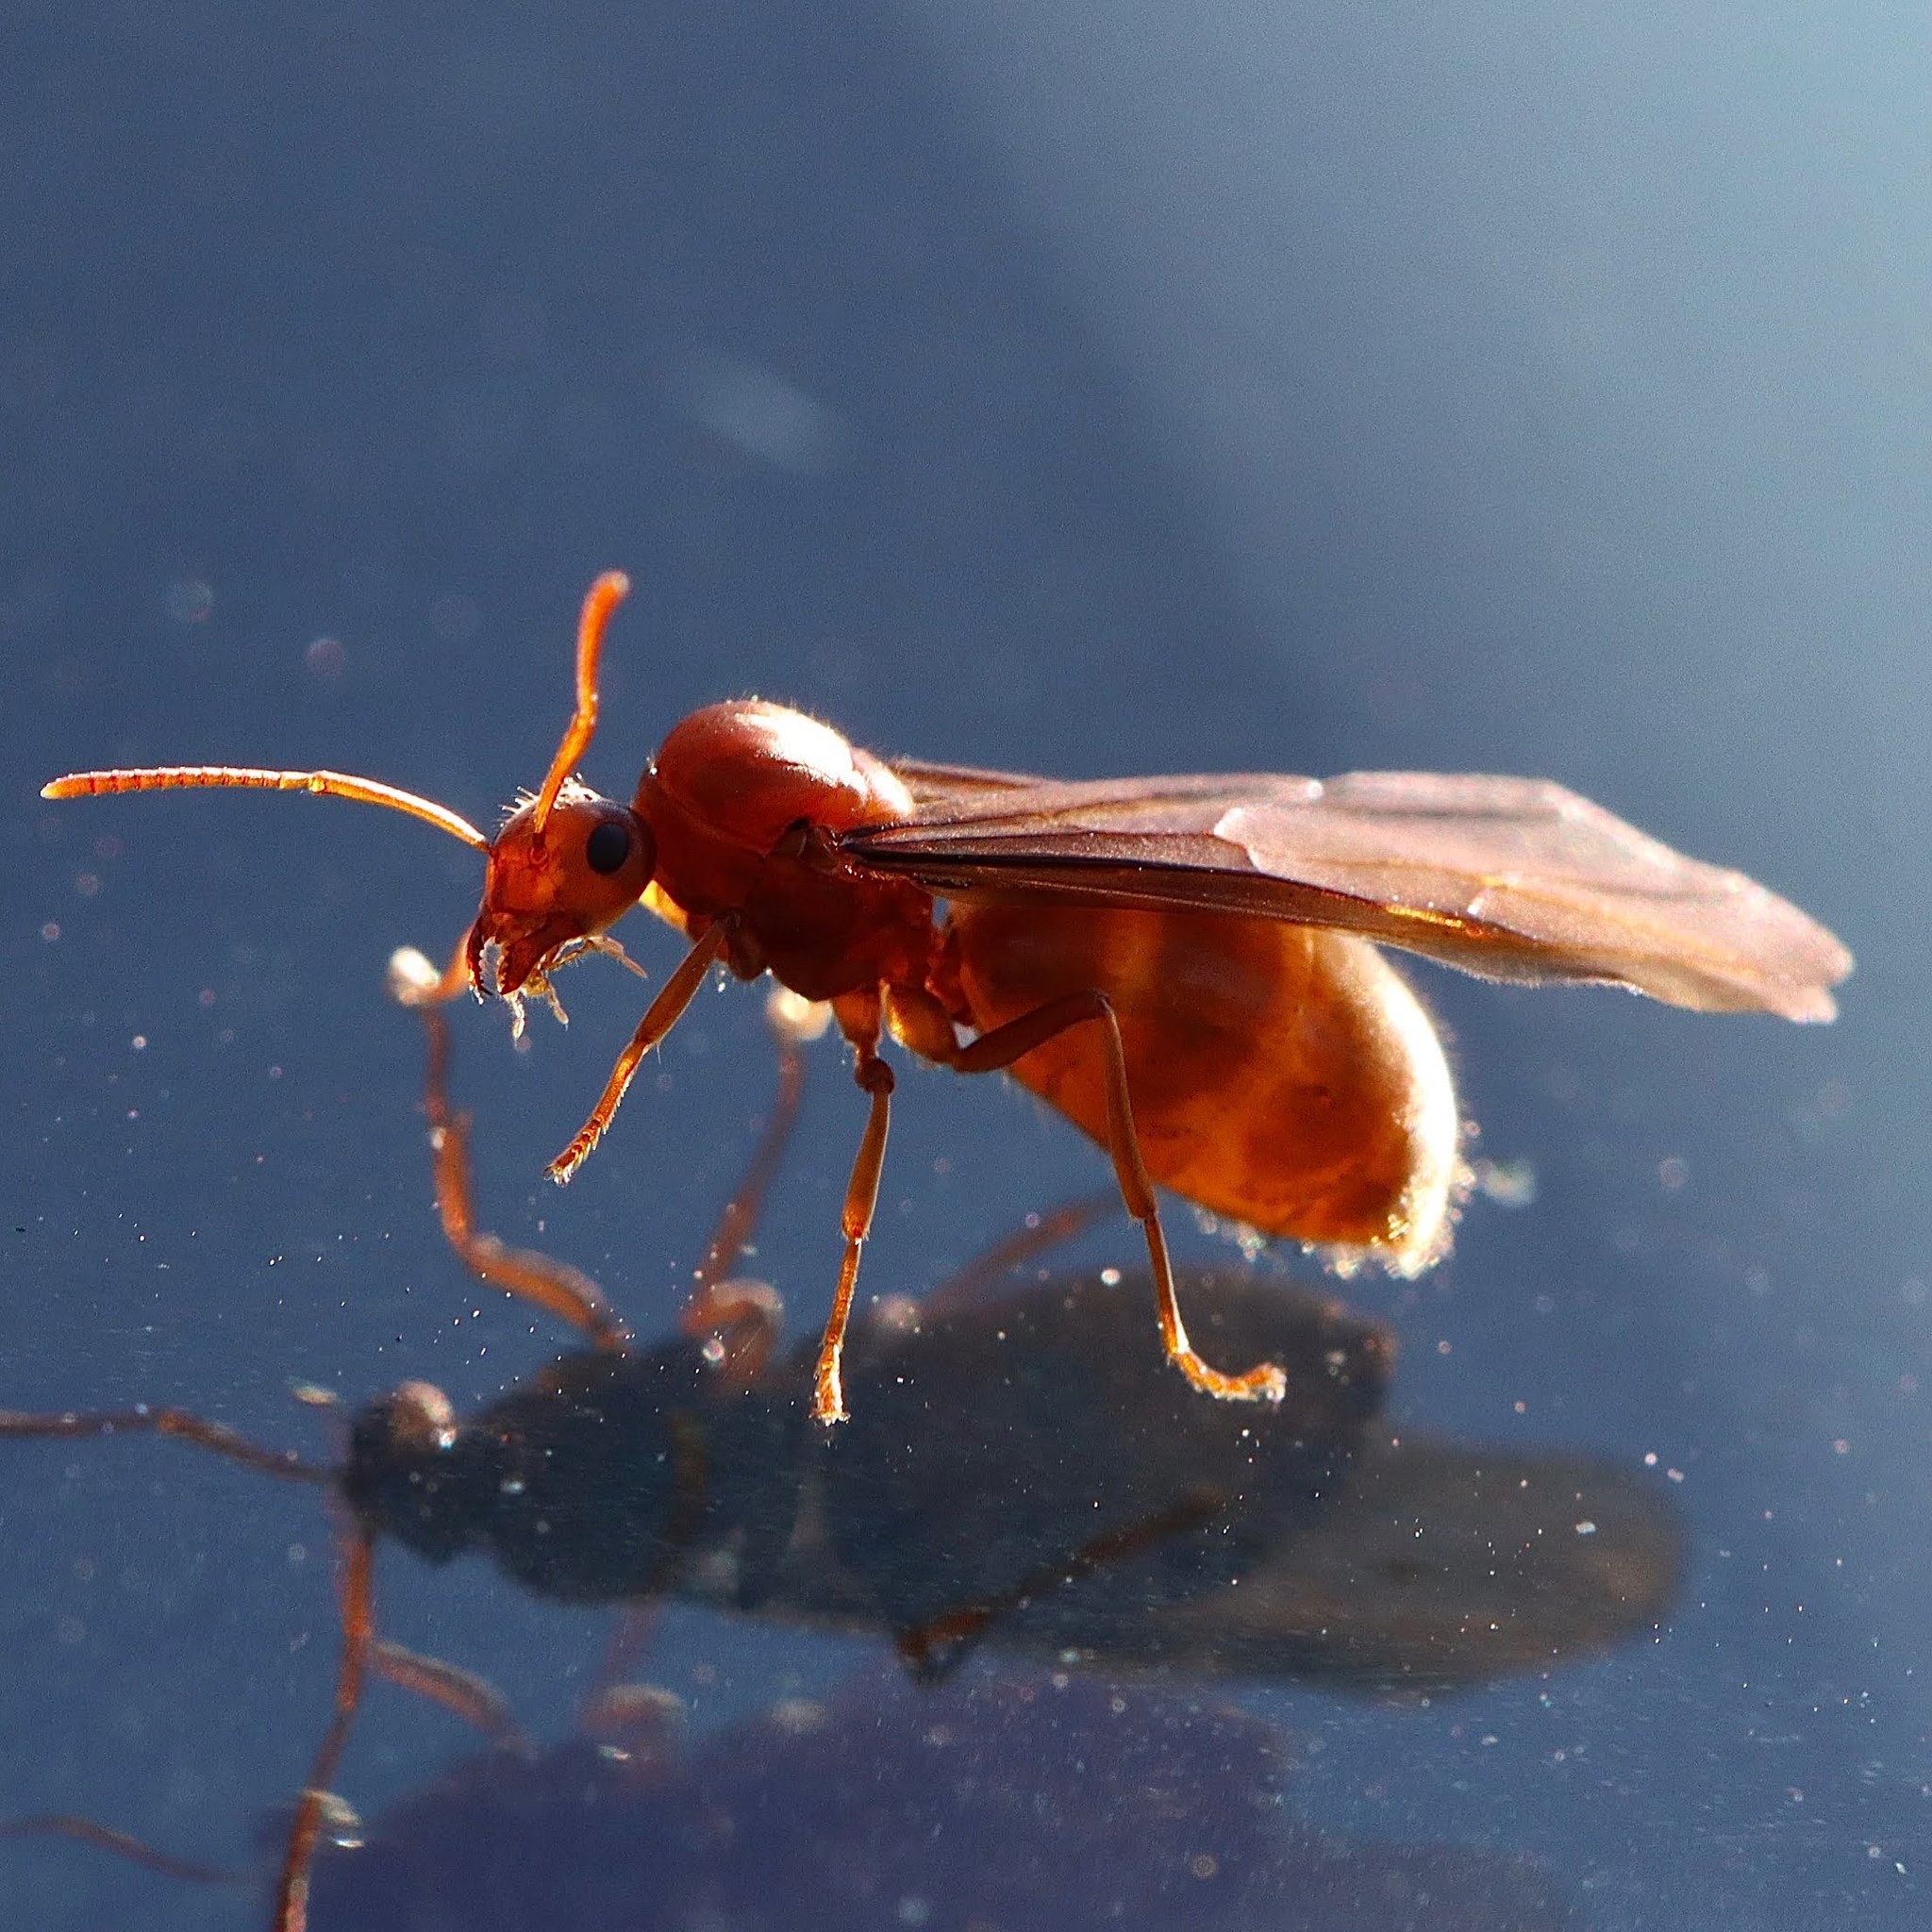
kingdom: Animalia
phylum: Arthropoda
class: Insecta
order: Hymenoptera
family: Formicidae
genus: Prenolepis
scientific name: Prenolepis imparis
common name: Small honey ant
